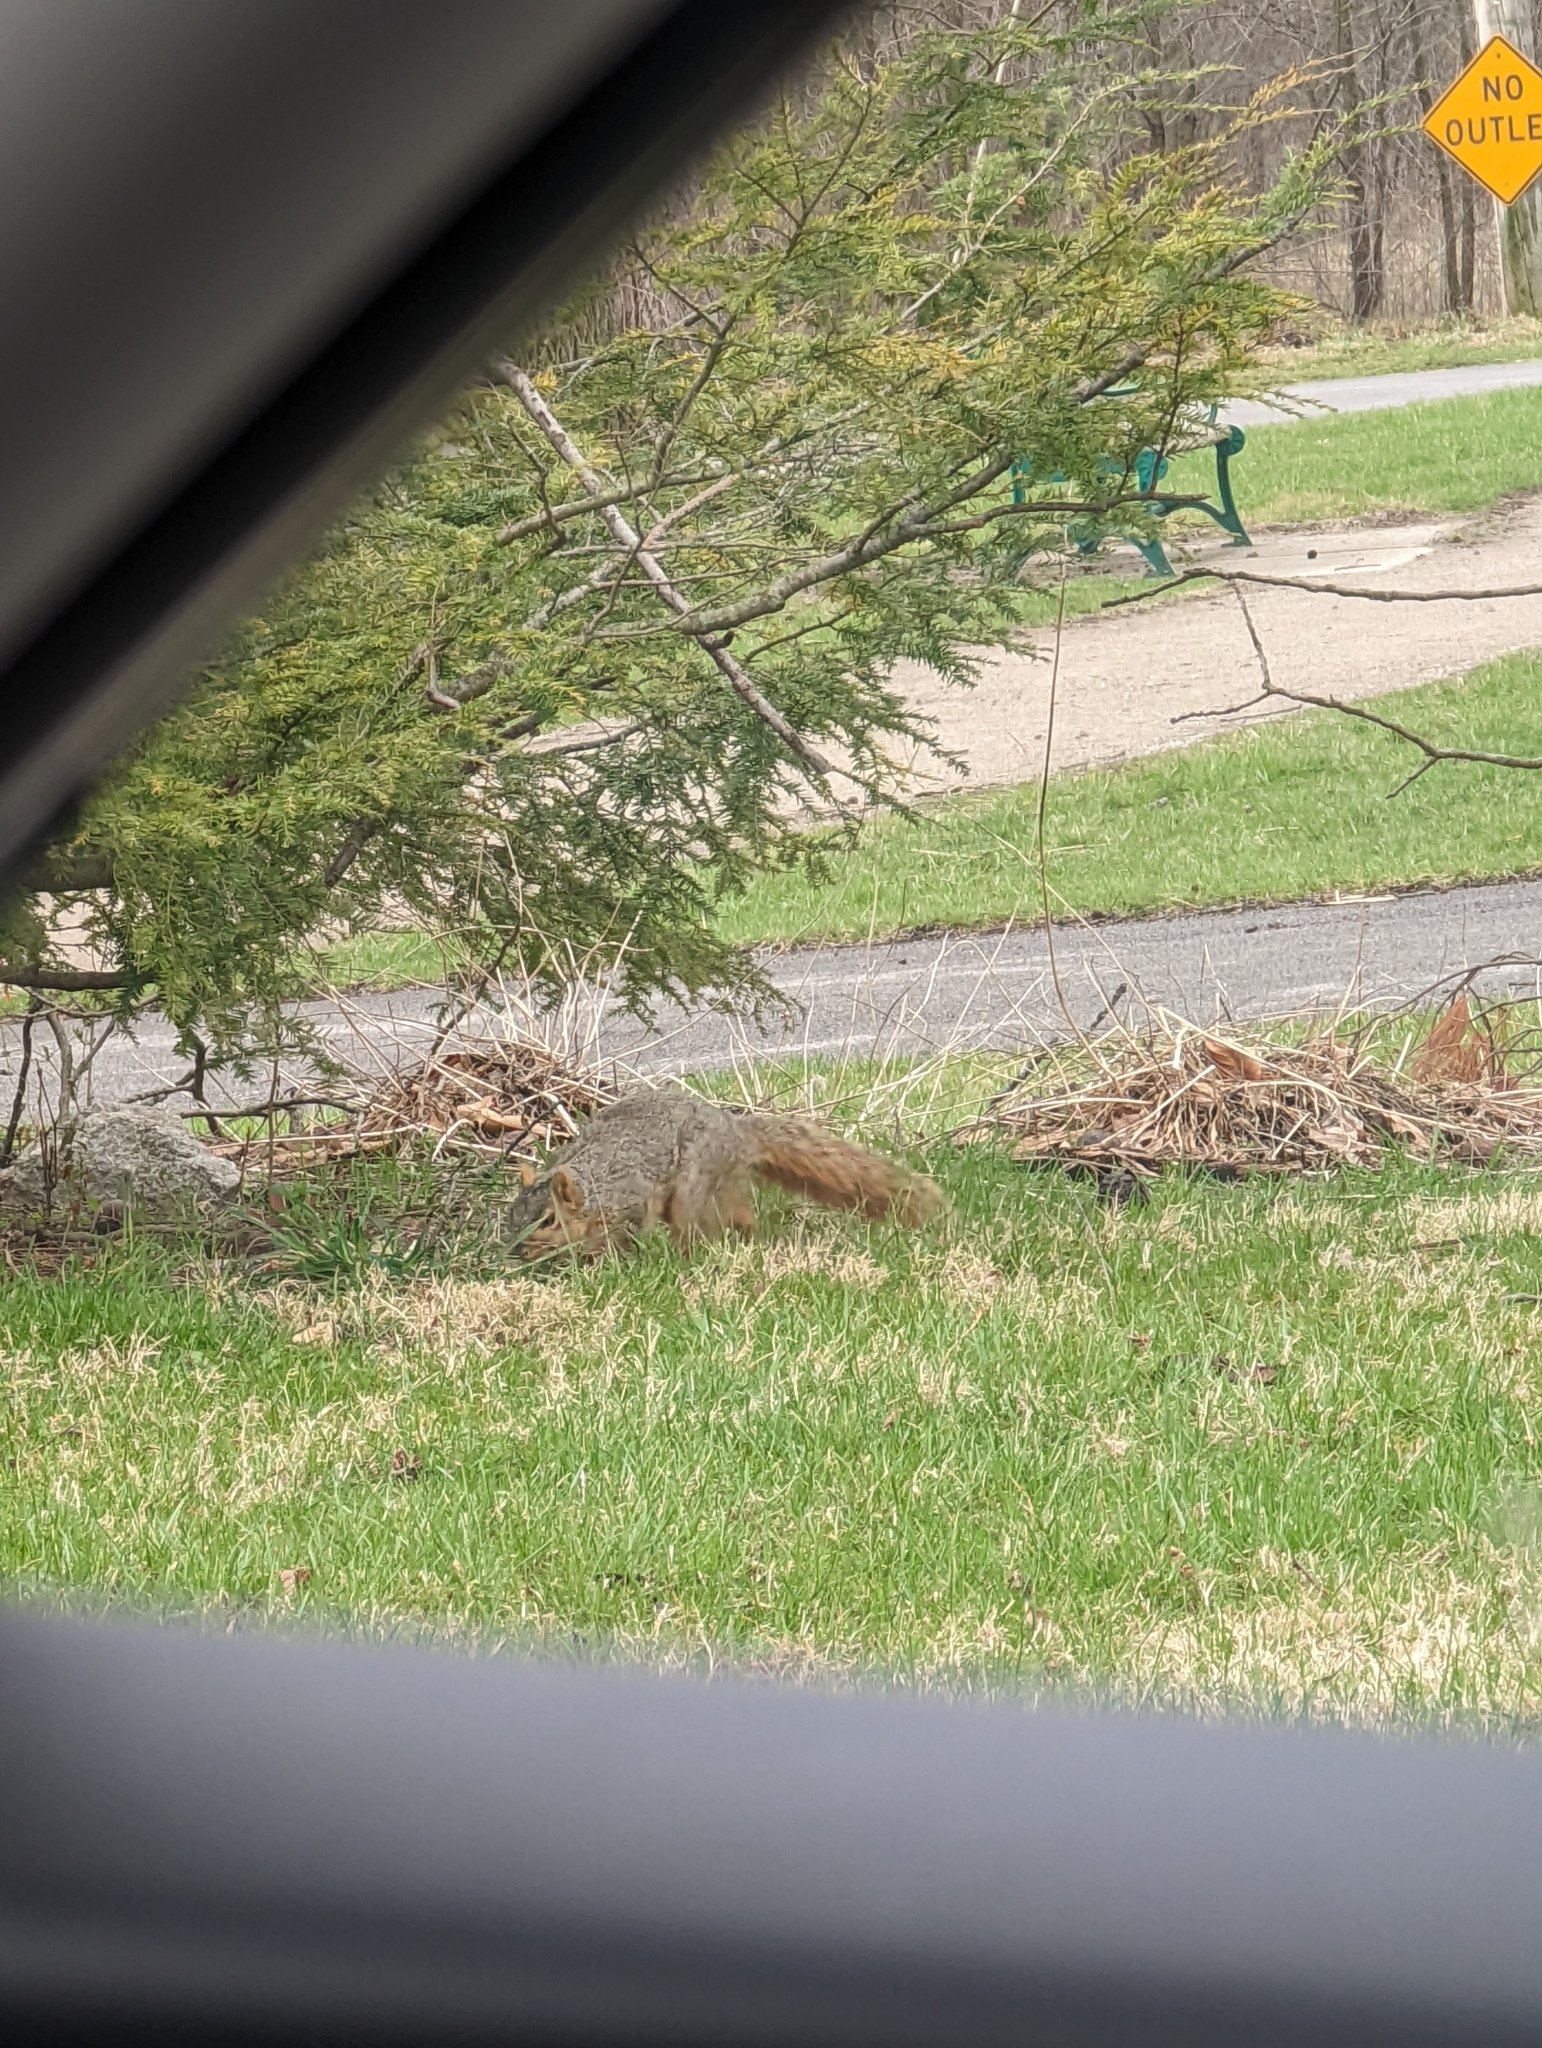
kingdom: Animalia
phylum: Chordata
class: Mammalia
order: Rodentia
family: Sciuridae
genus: Sciurus
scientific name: Sciurus niger
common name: Fox squirrel
